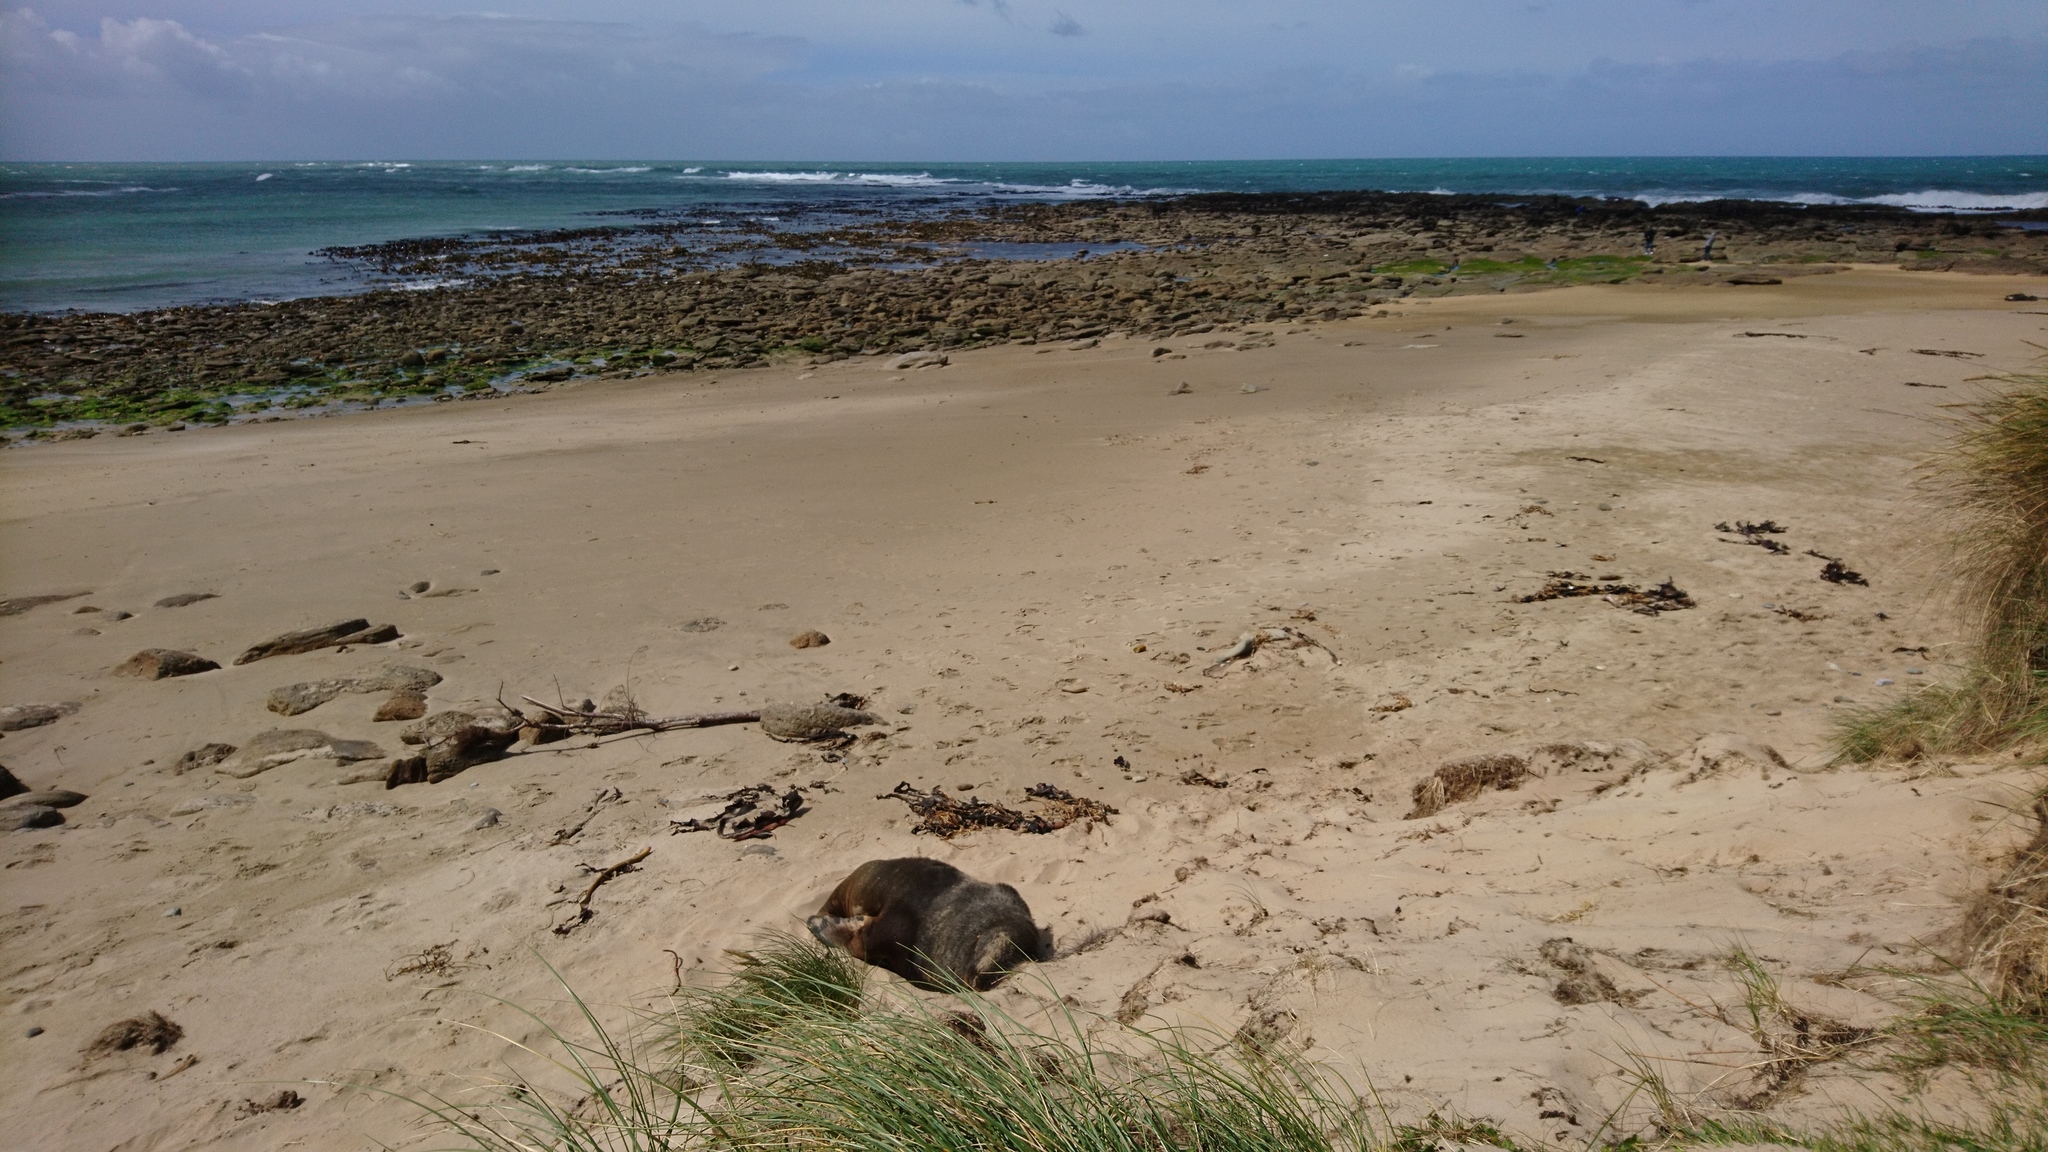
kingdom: Animalia
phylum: Chordata
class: Mammalia
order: Carnivora
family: Otariidae
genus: Phocarctos
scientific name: Phocarctos hookeri
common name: New zealand sea lion
